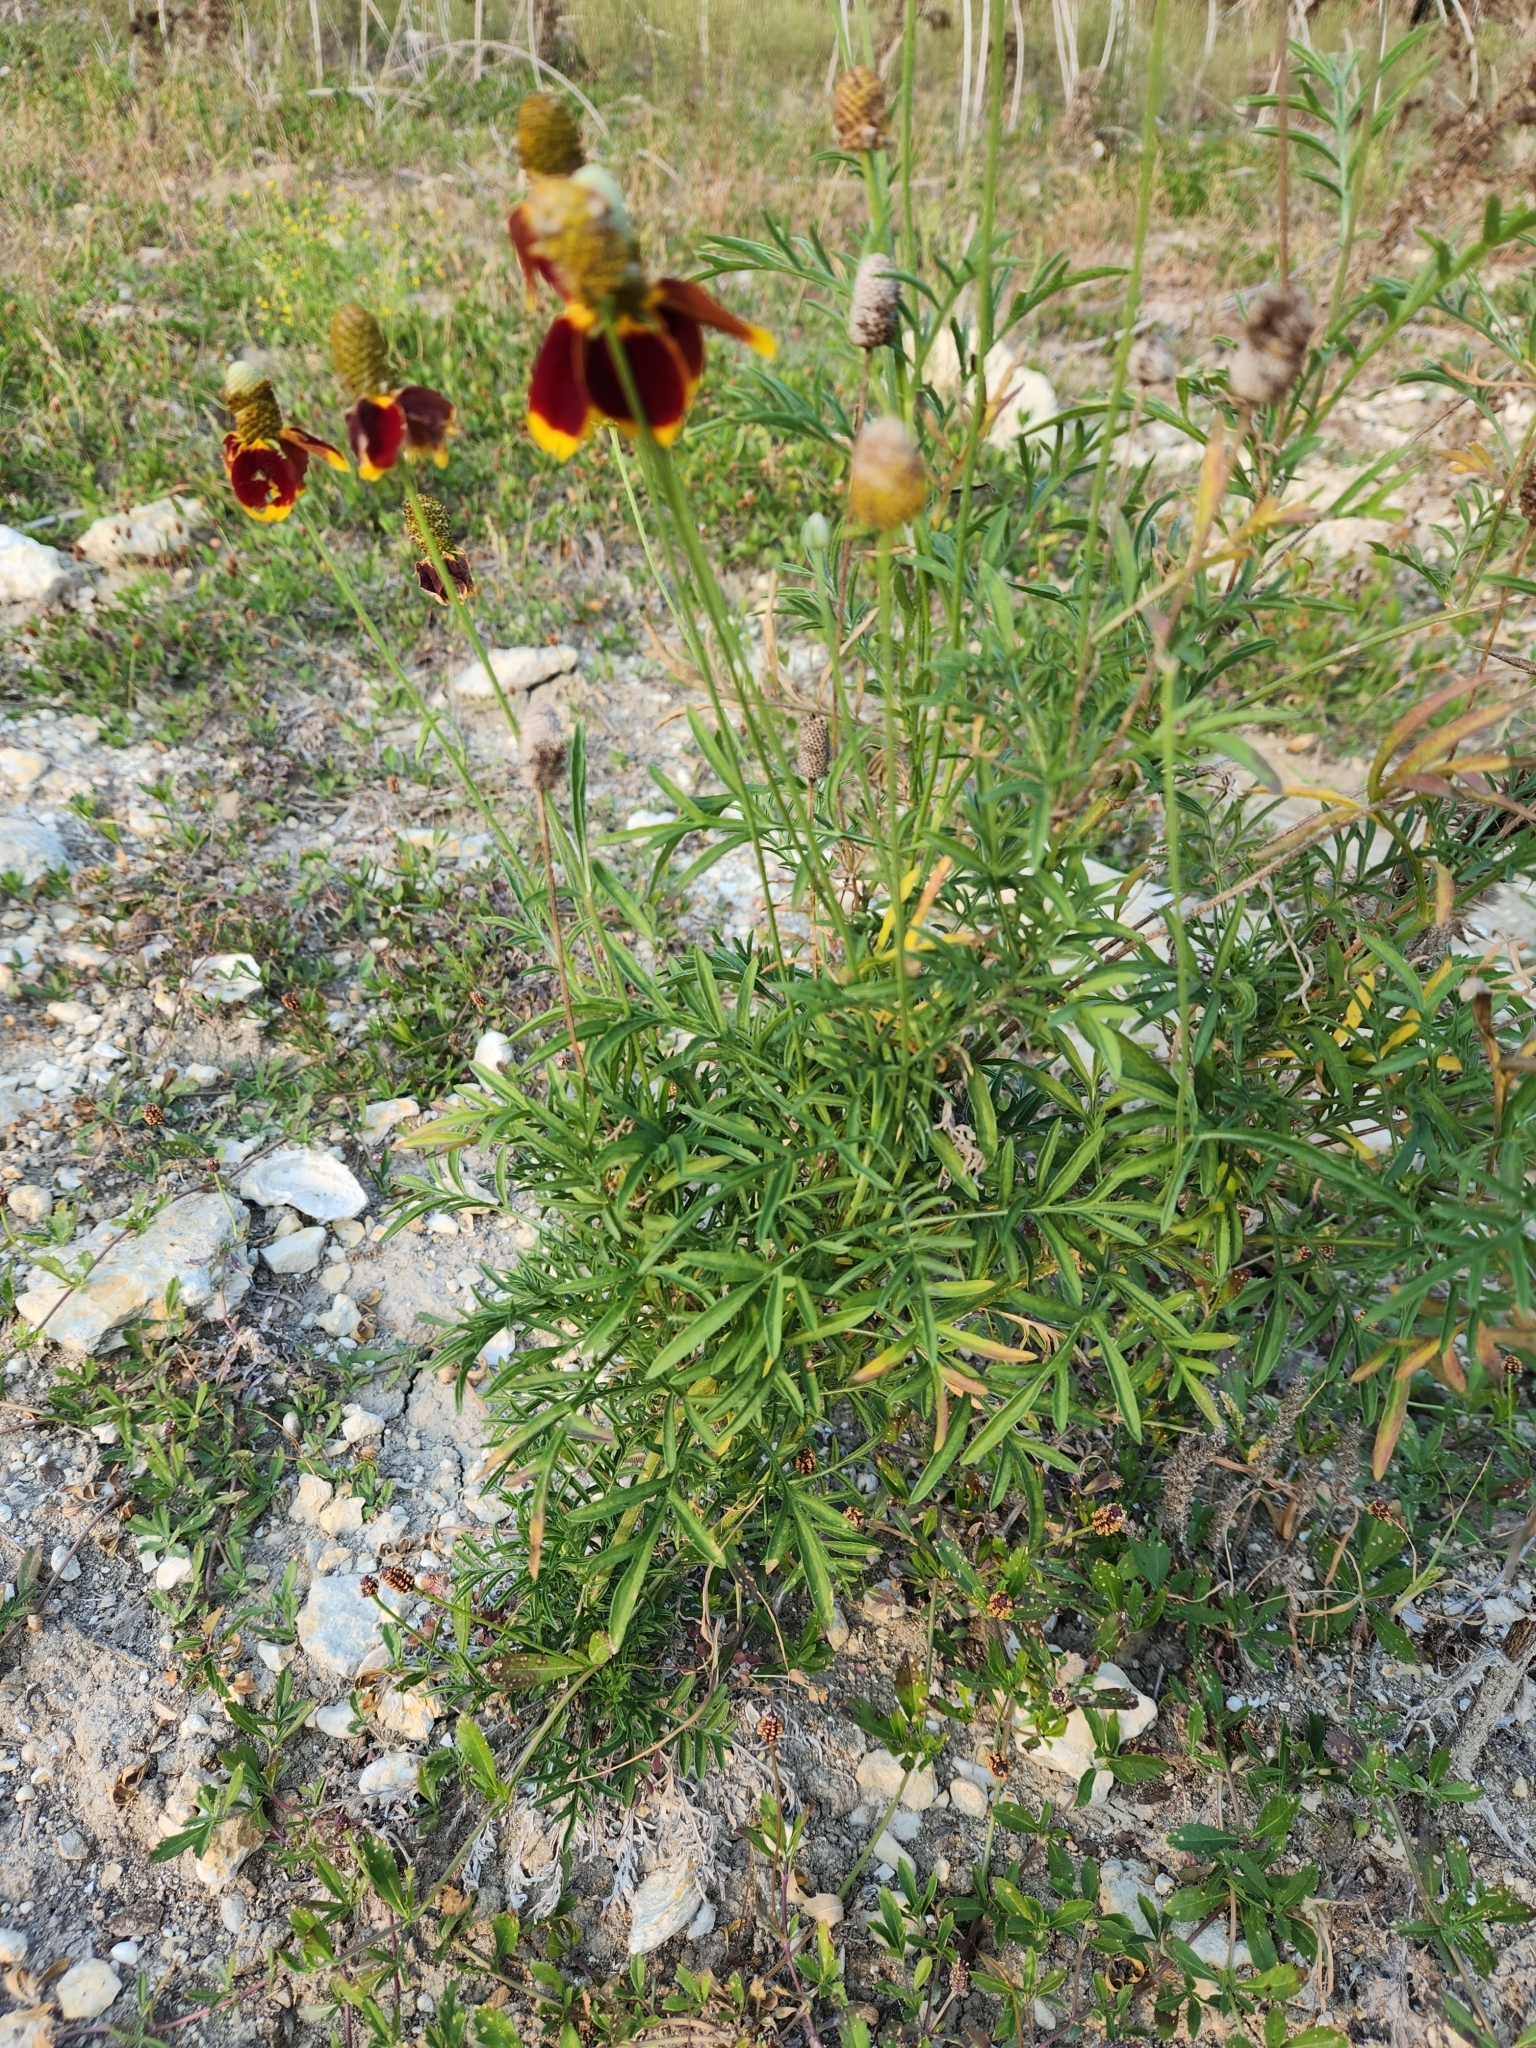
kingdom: Plantae
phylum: Tracheophyta
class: Magnoliopsida
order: Asterales
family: Asteraceae
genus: Ratibida
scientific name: Ratibida columnifera
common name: Prairie coneflower
